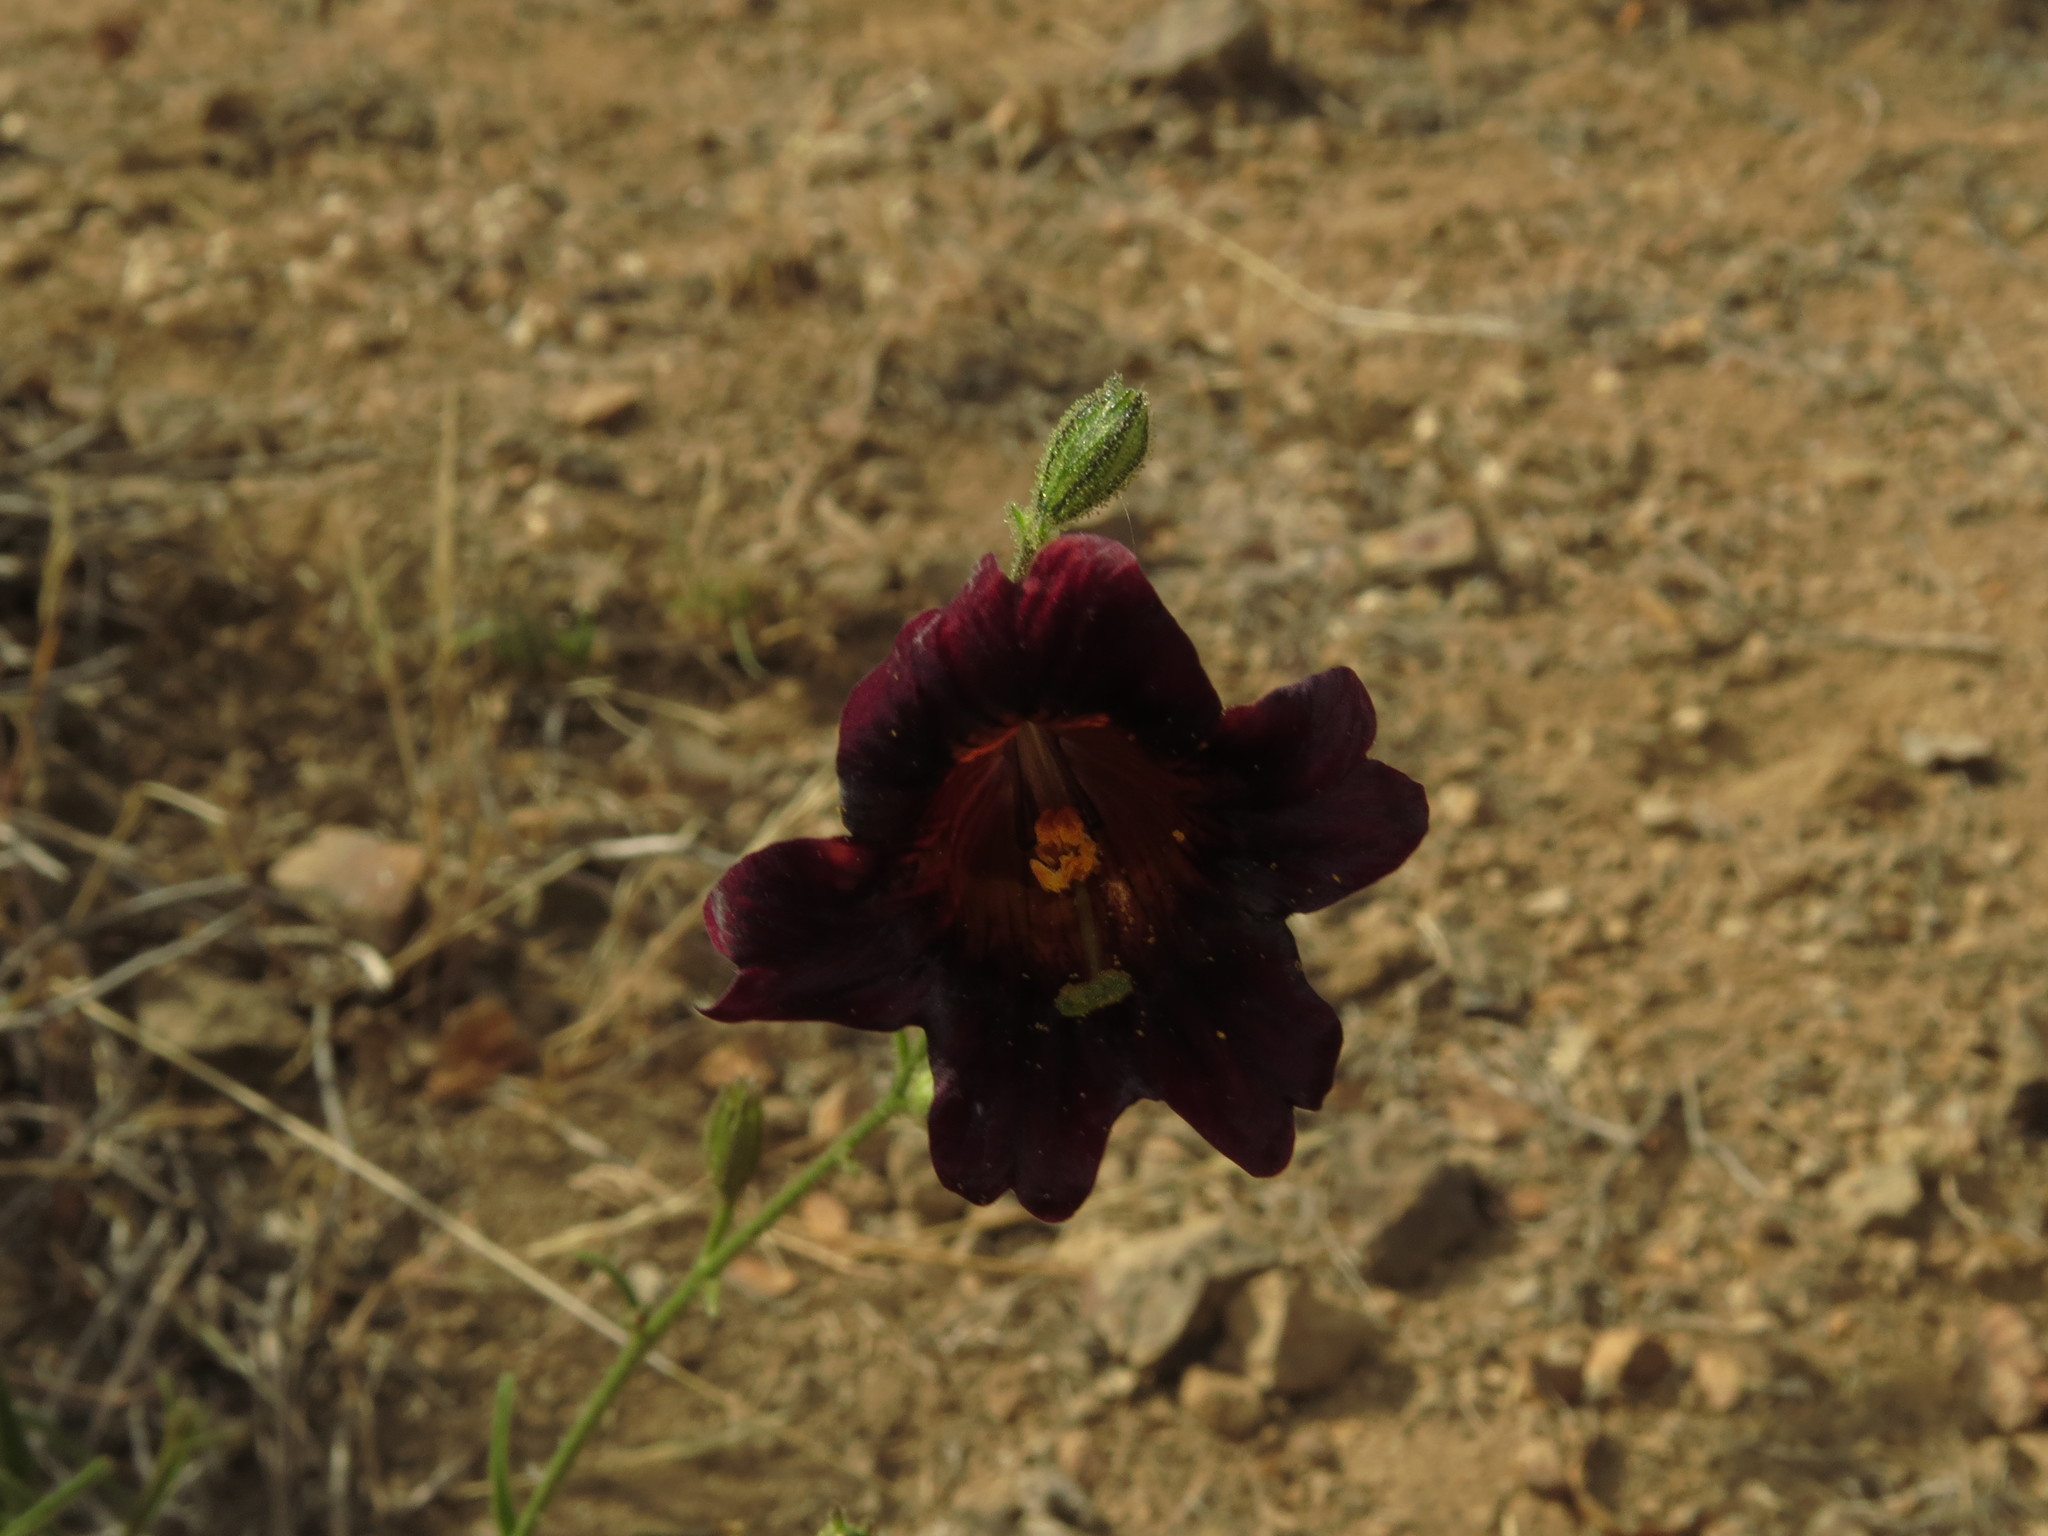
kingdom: Plantae
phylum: Tracheophyta
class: Magnoliopsida
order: Solanales
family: Solanaceae
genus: Salpiglossis
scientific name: Salpiglossis sinuata
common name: Painted-tongue
